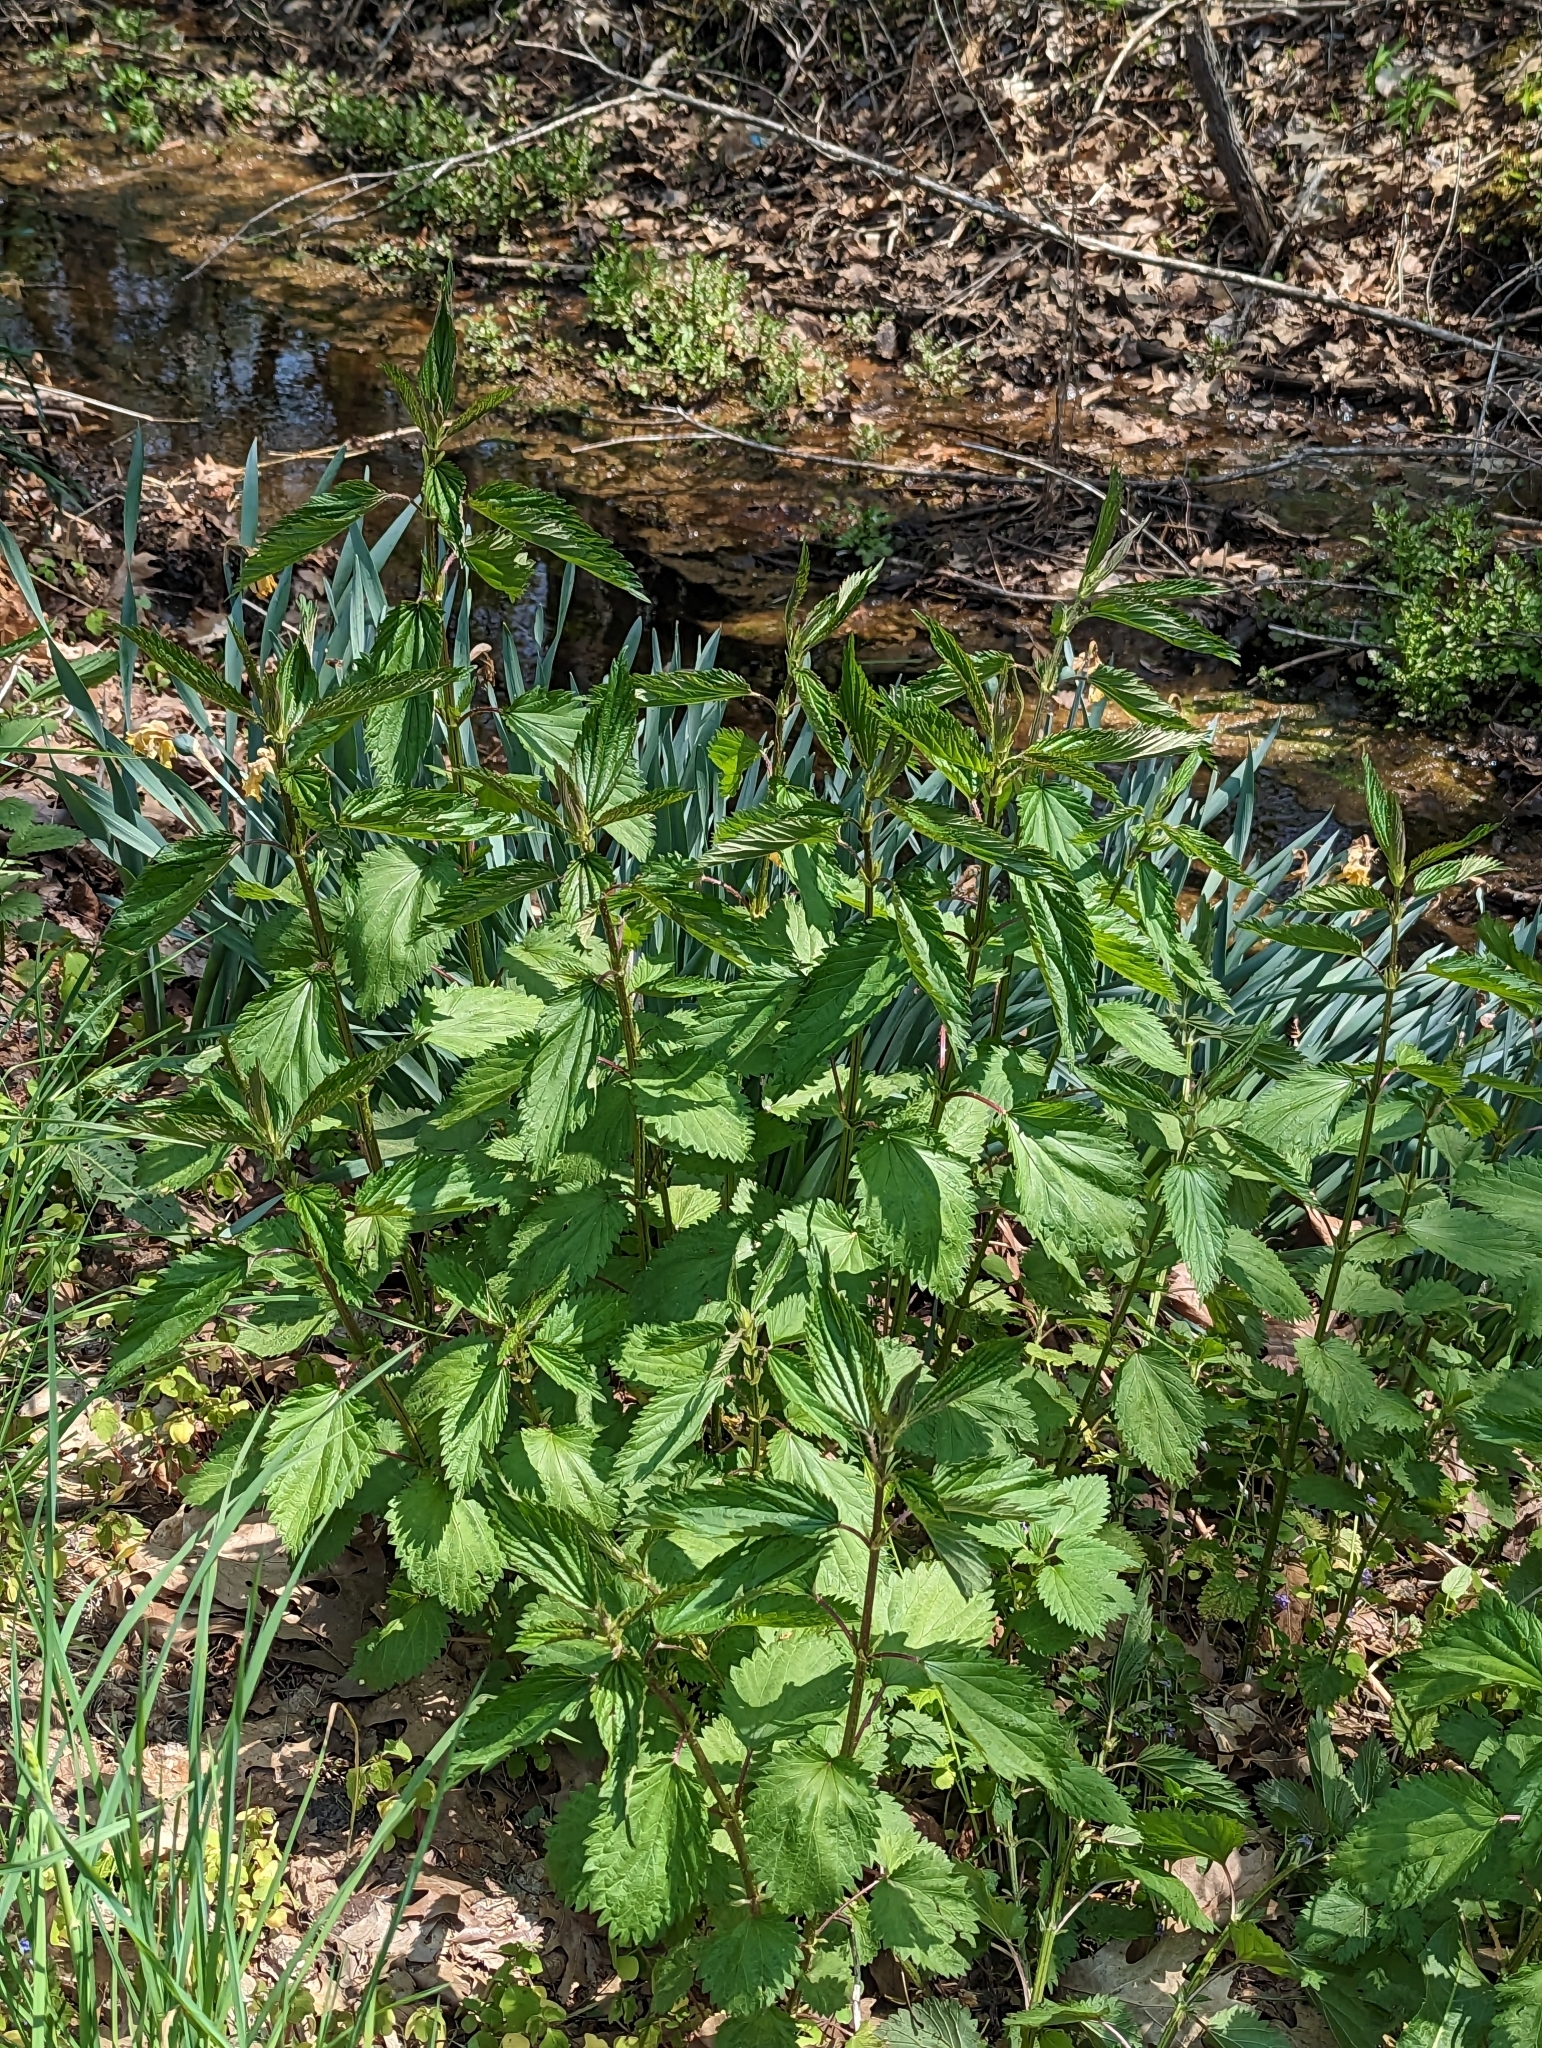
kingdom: Plantae
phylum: Tracheophyta
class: Magnoliopsida
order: Rosales
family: Urticaceae
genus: Urtica
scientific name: Urtica dioica
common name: Common nettle
